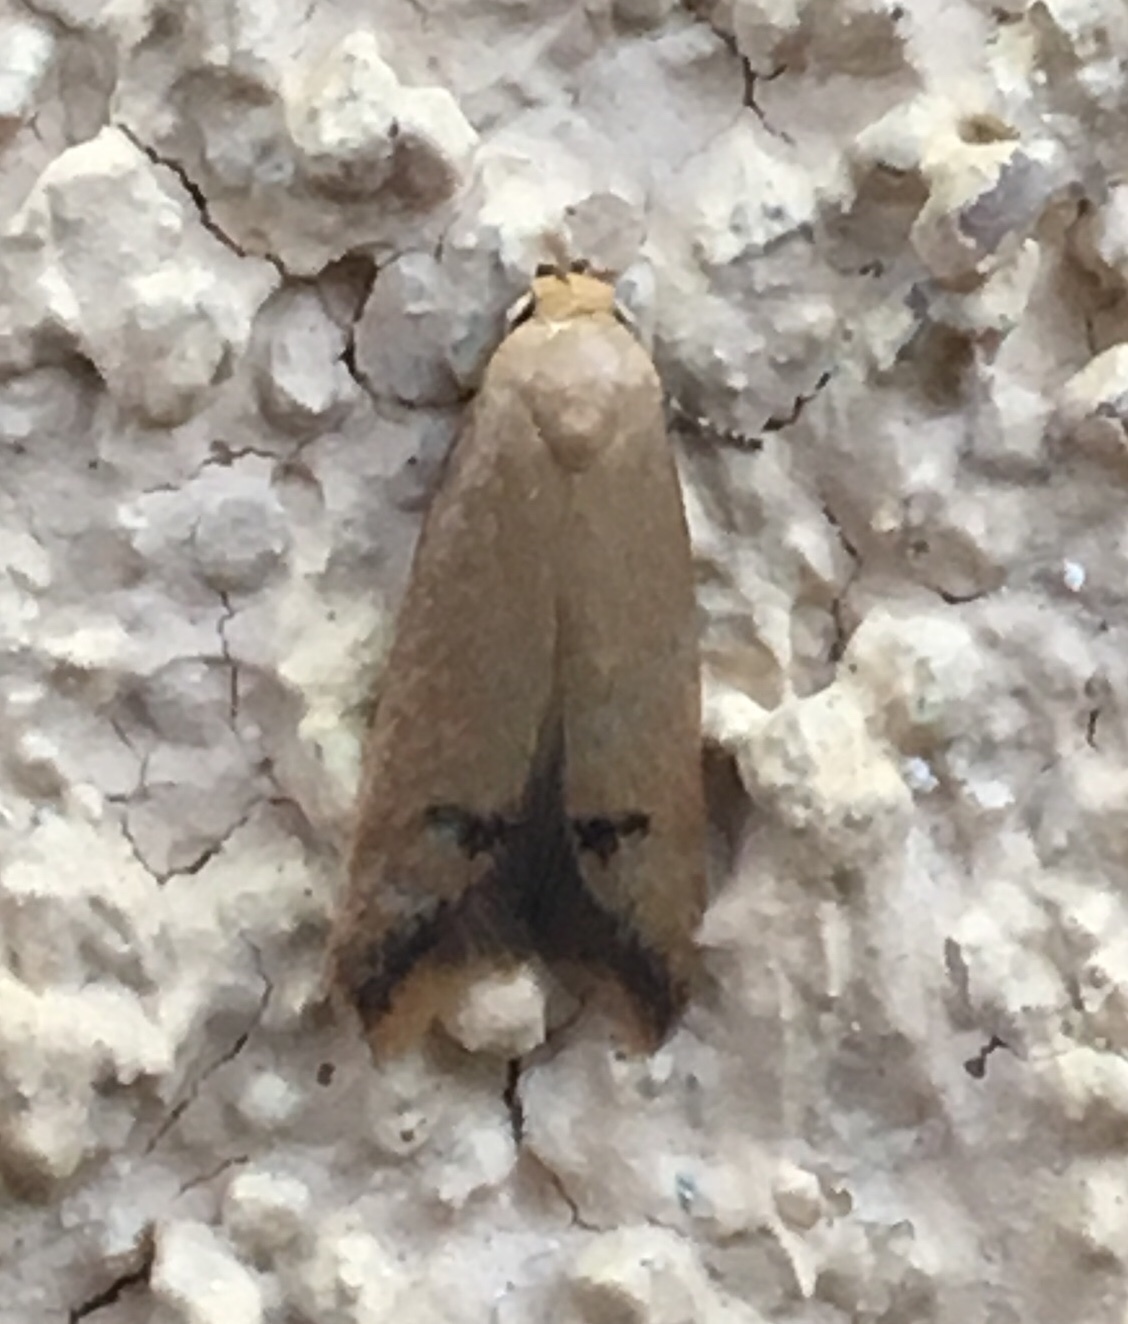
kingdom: Animalia
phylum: Arthropoda
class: Insecta
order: Lepidoptera
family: Oecophoridae
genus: Tachystola
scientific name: Tachystola hemisema
